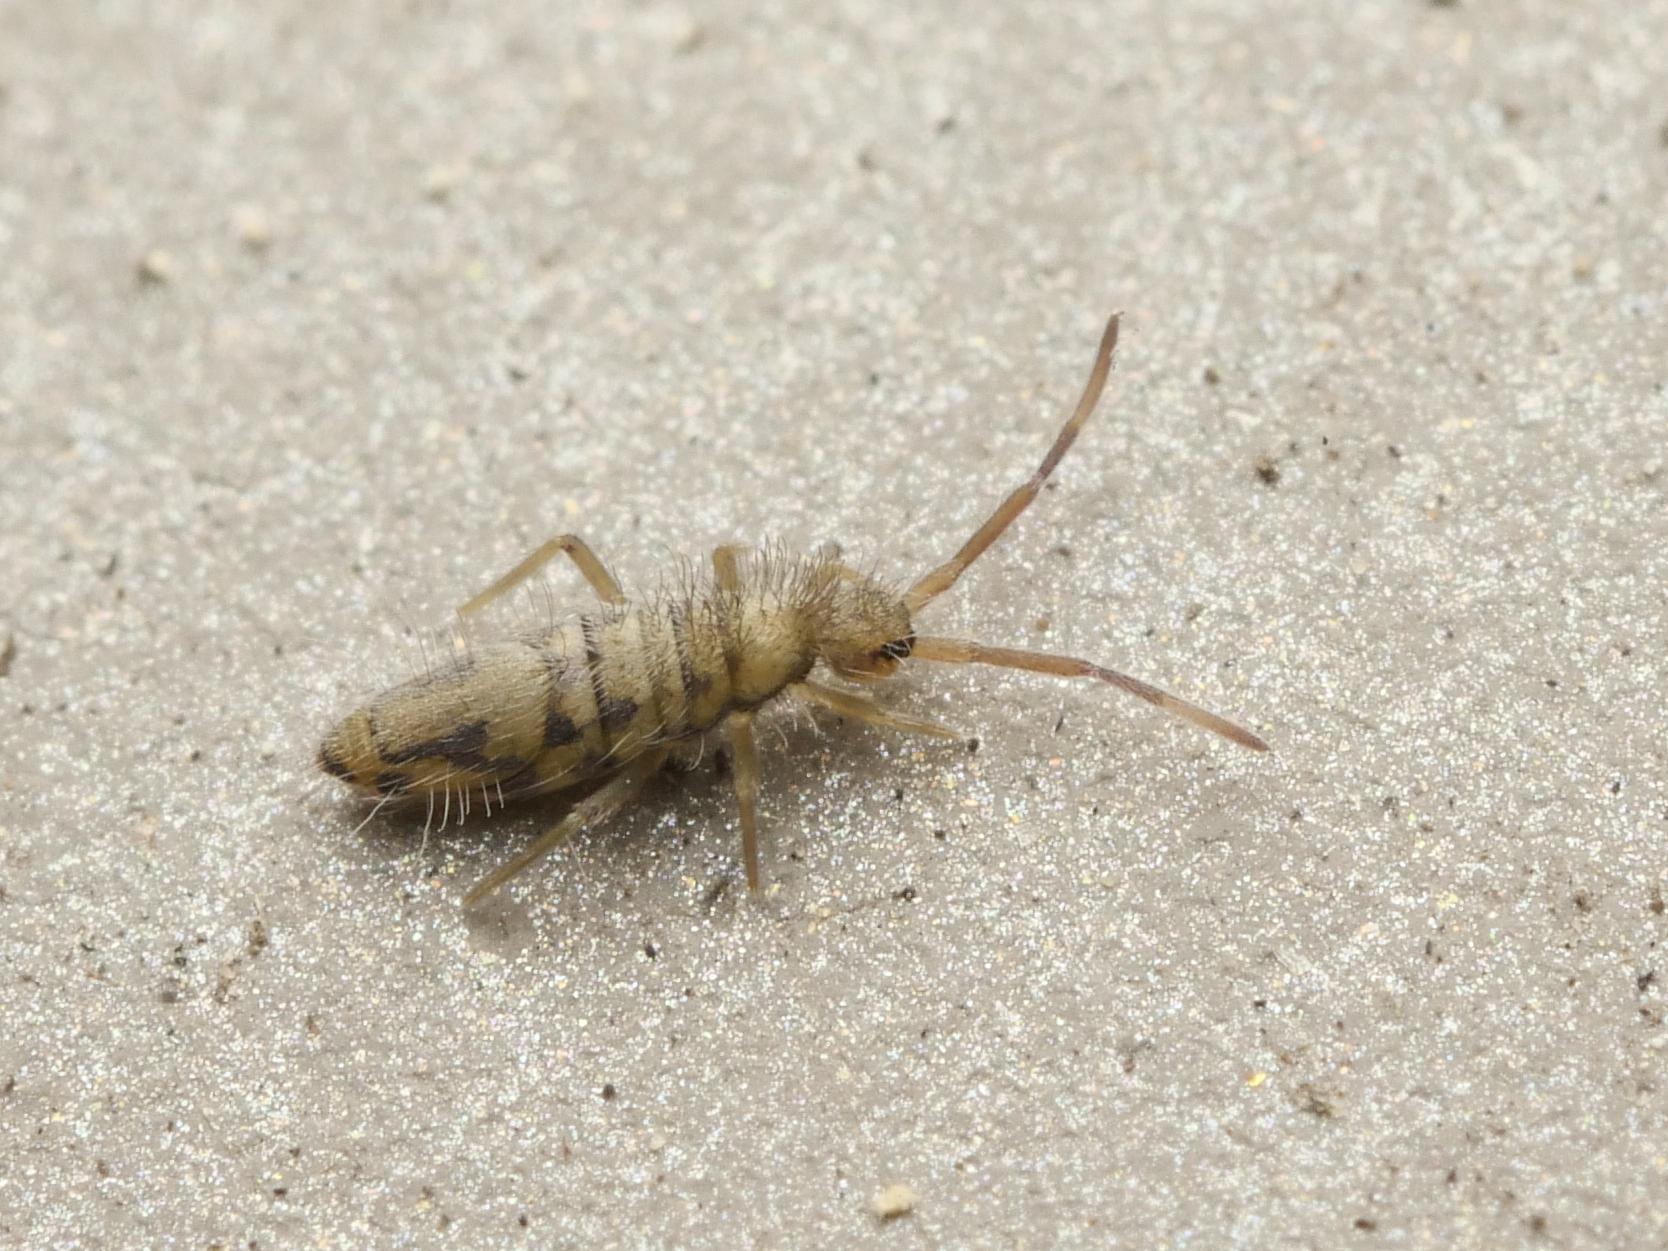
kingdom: Animalia
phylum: Arthropoda
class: Collembola
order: Entomobryomorpha
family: Entomobryidae
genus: Entomobrya
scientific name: Entomobrya nivalis
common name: Cosmopolitan springtail
